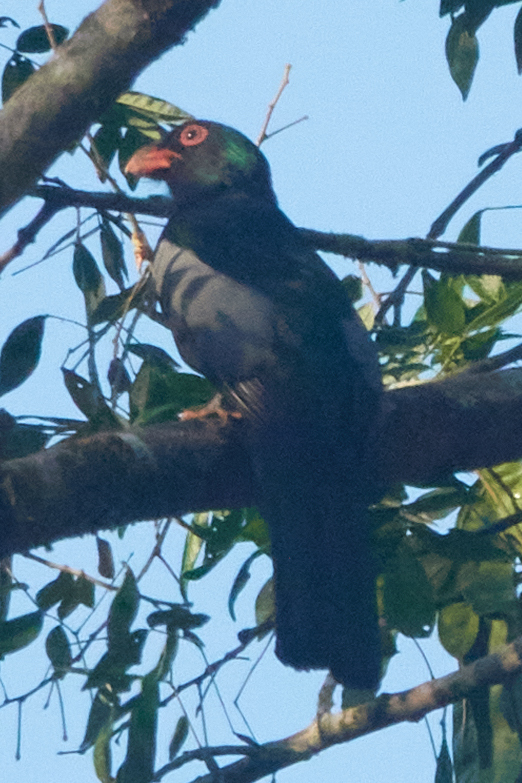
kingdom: Animalia
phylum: Chordata
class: Aves
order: Trogoniformes
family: Trogonidae
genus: Trogon
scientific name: Trogon massena
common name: Slaty-tailed trogon
